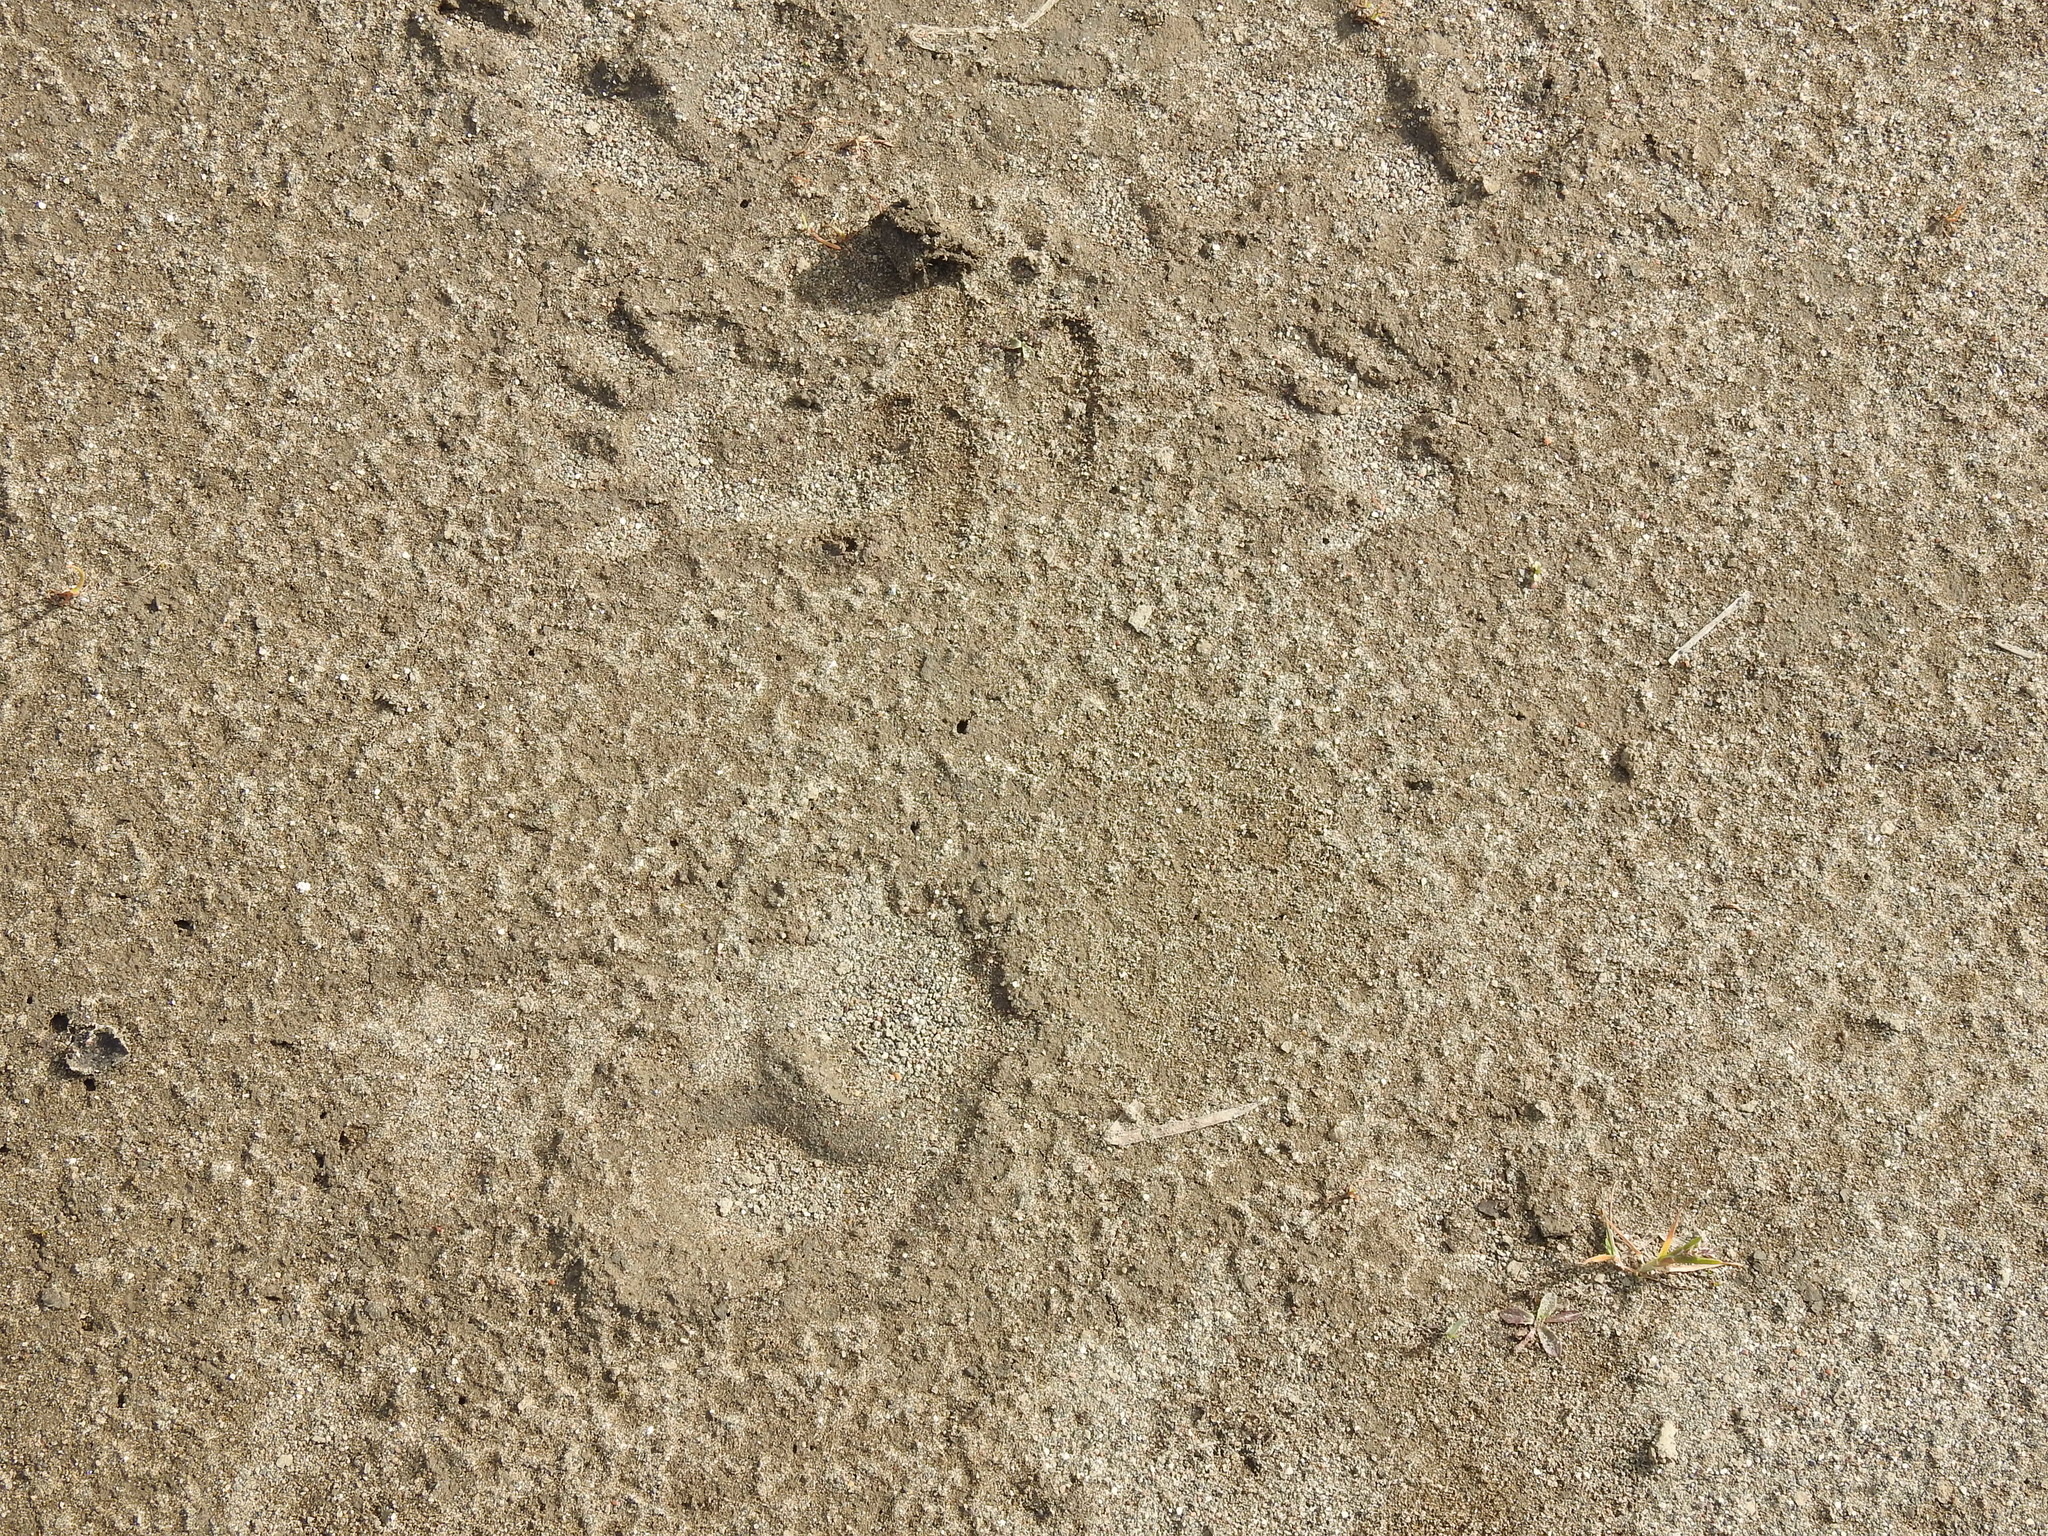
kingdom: Animalia
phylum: Chordata
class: Mammalia
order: Carnivora
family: Procyonidae
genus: Procyon
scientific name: Procyon lotor
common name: Raccoon
